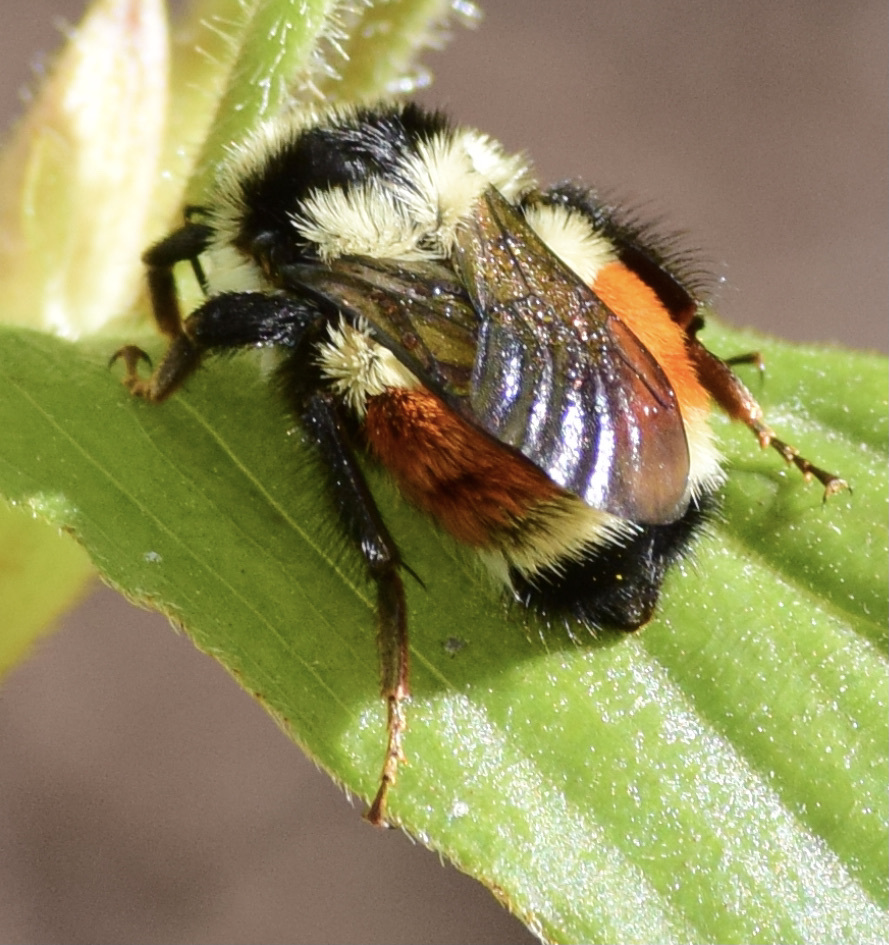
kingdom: Animalia
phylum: Arthropoda
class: Insecta
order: Hymenoptera
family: Apidae
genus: Bombus
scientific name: Bombus ternarius
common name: Tri-colored bumble bee
